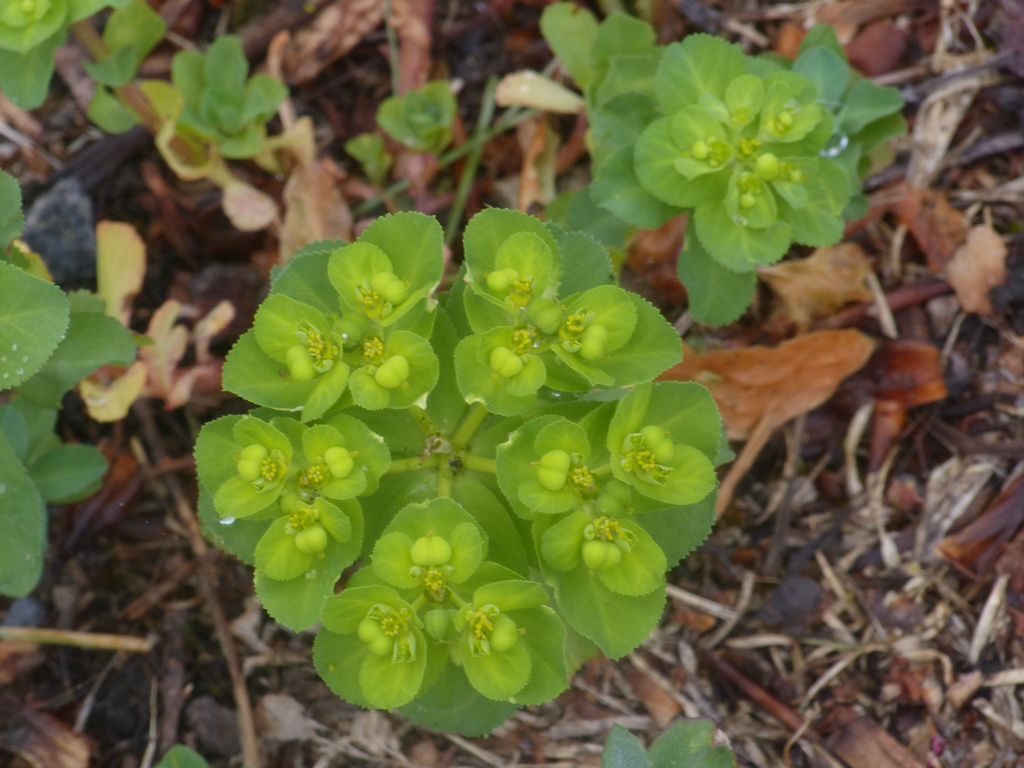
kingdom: Plantae
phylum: Tracheophyta
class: Magnoliopsida
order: Malpighiales
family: Euphorbiaceae
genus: Euphorbia
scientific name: Euphorbia helioscopia
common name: Sun spurge
